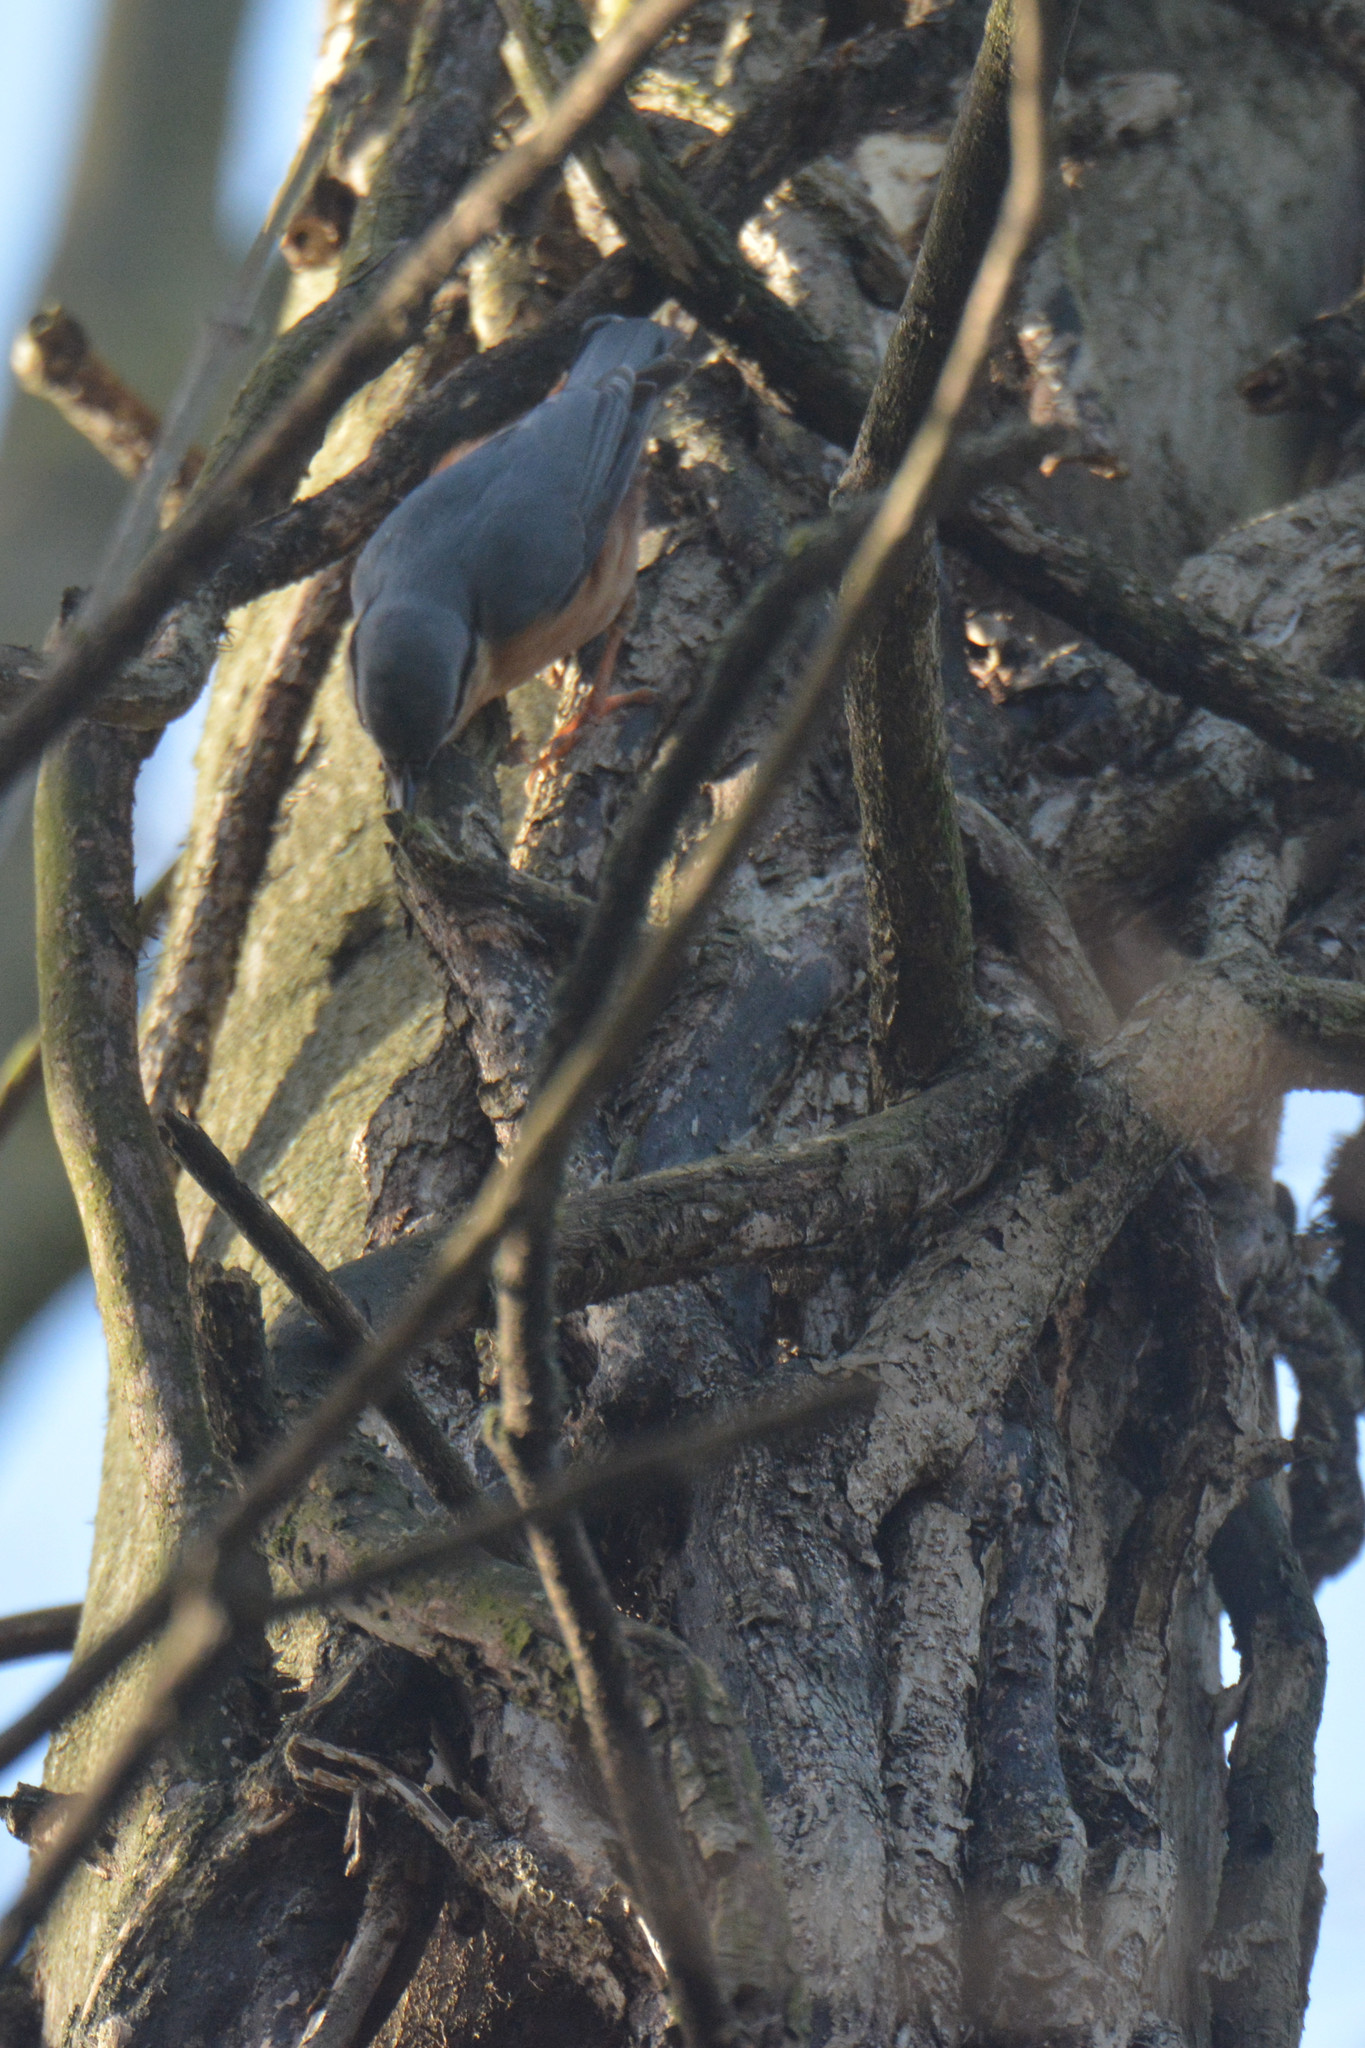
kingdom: Animalia
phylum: Chordata
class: Aves
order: Passeriformes
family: Sittidae
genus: Sitta
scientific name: Sitta europaea
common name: Eurasian nuthatch
